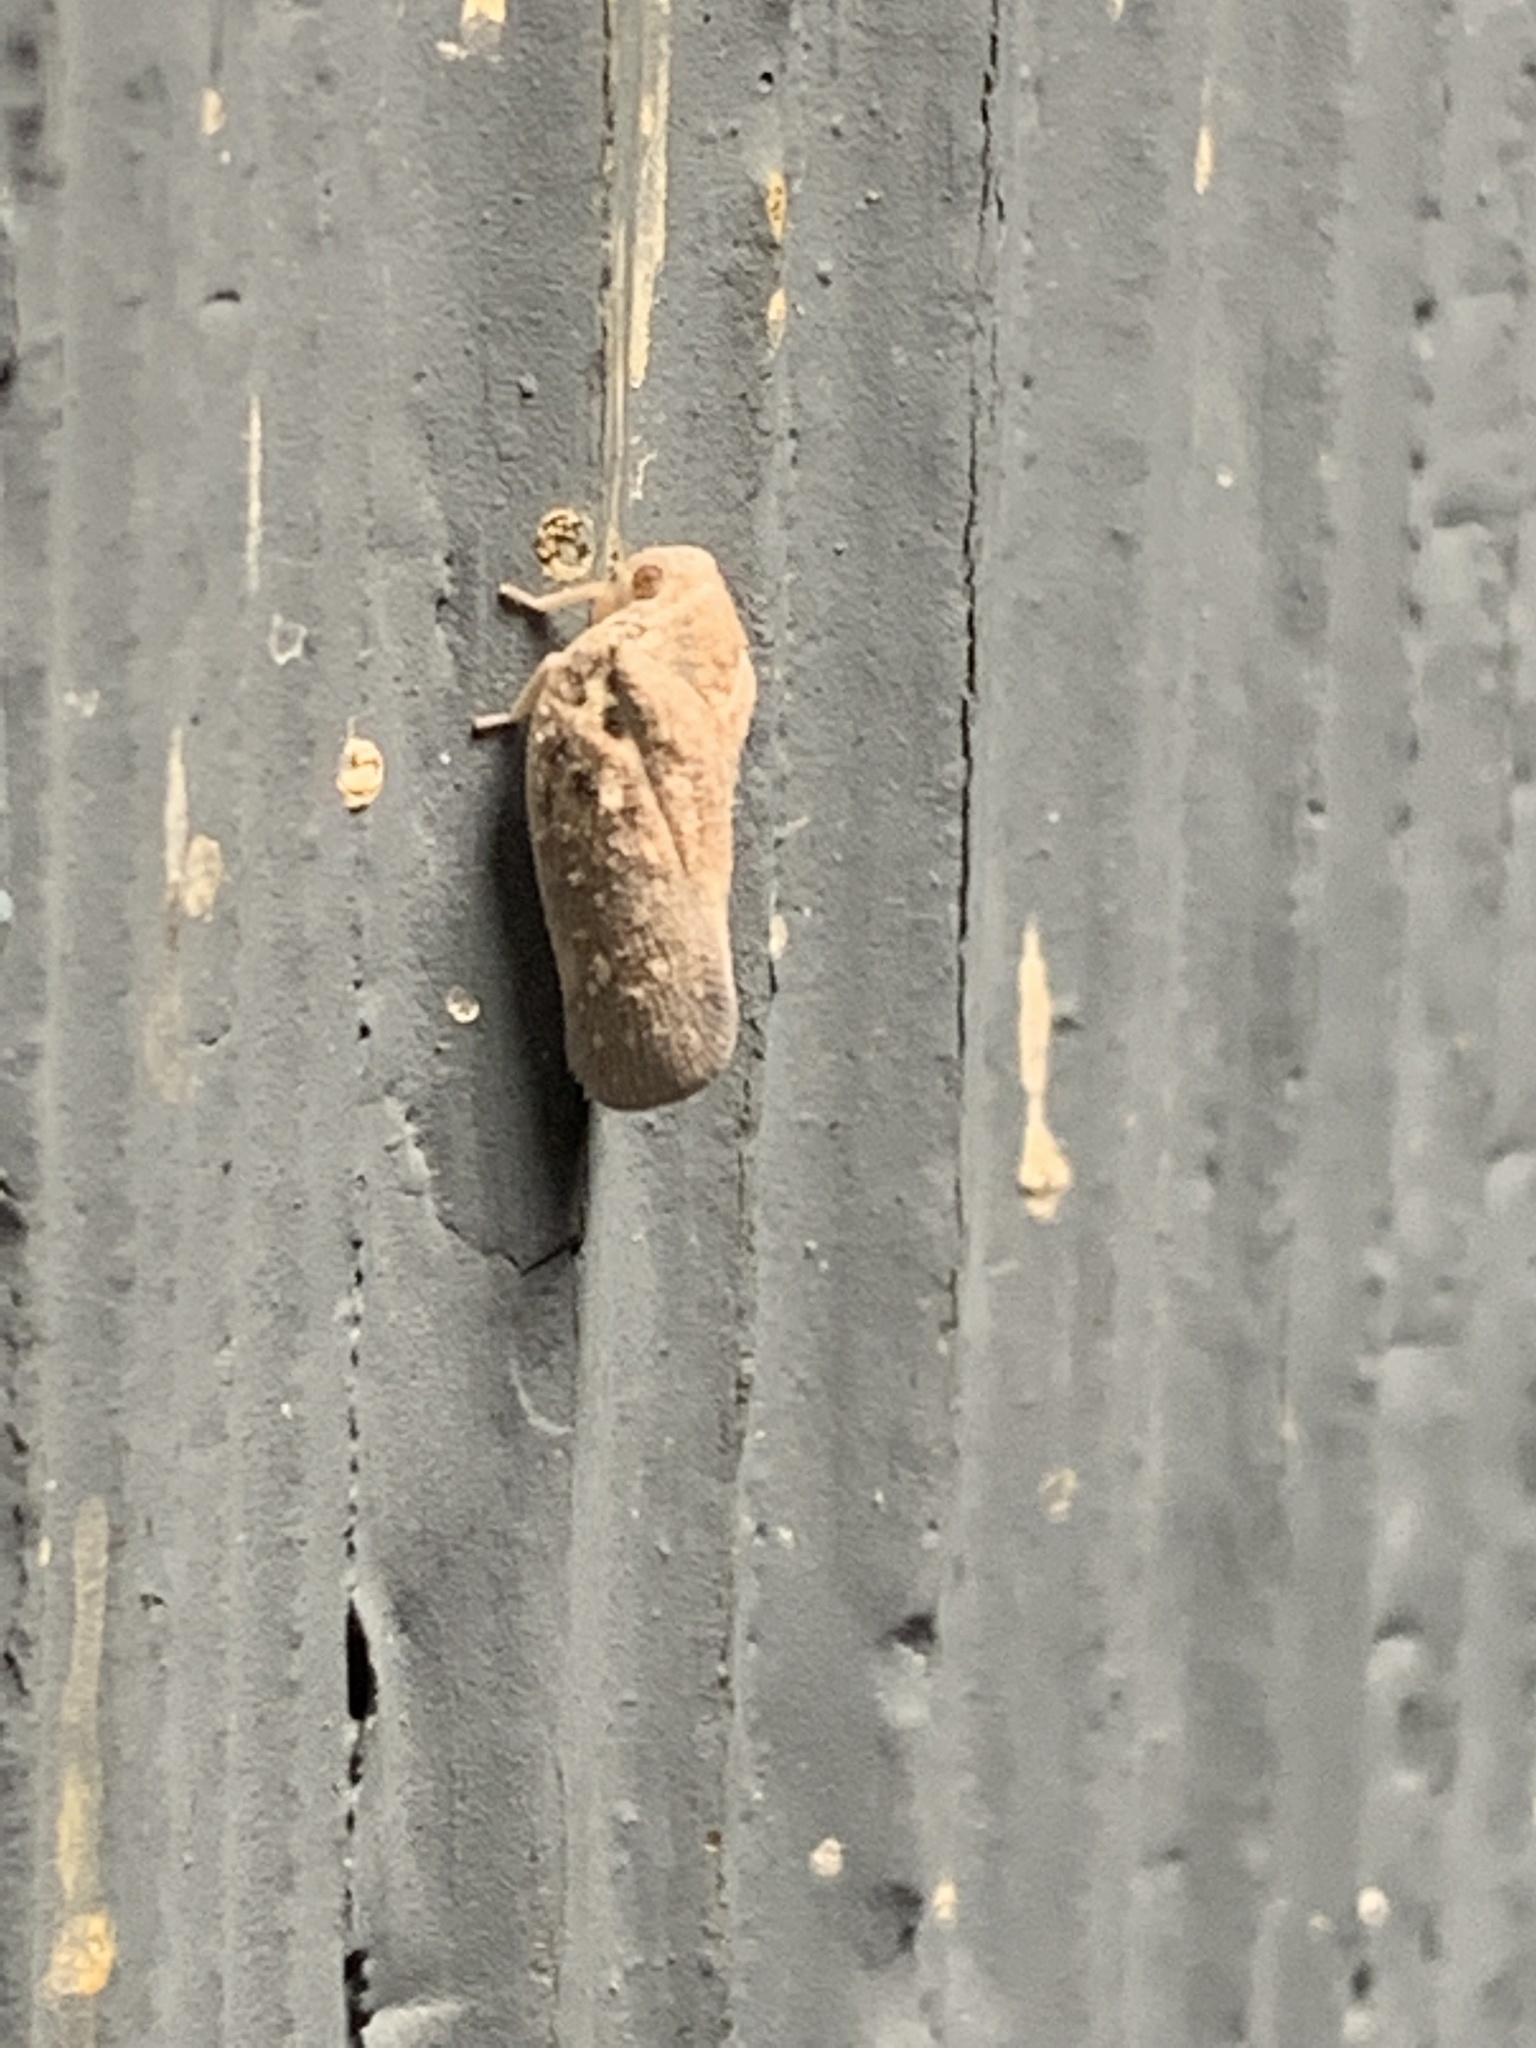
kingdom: Animalia
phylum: Arthropoda
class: Insecta
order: Hemiptera
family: Flatidae
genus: Metcalfa
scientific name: Metcalfa pruinosa
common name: Citrus flatid planthopper
